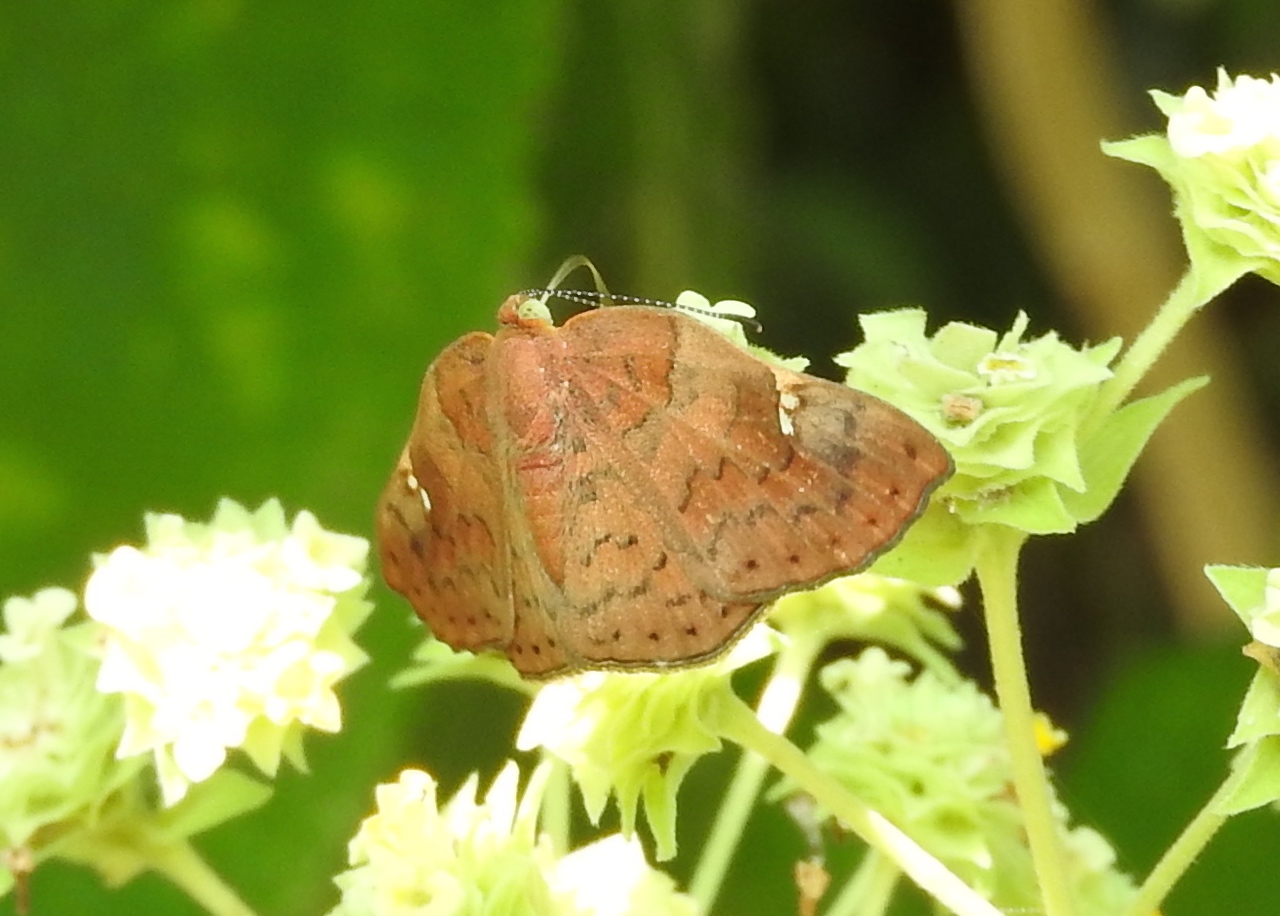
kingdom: Animalia
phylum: Arthropoda
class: Insecta
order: Lepidoptera
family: Riodinidae
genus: Curvie
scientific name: Curvie emesia
